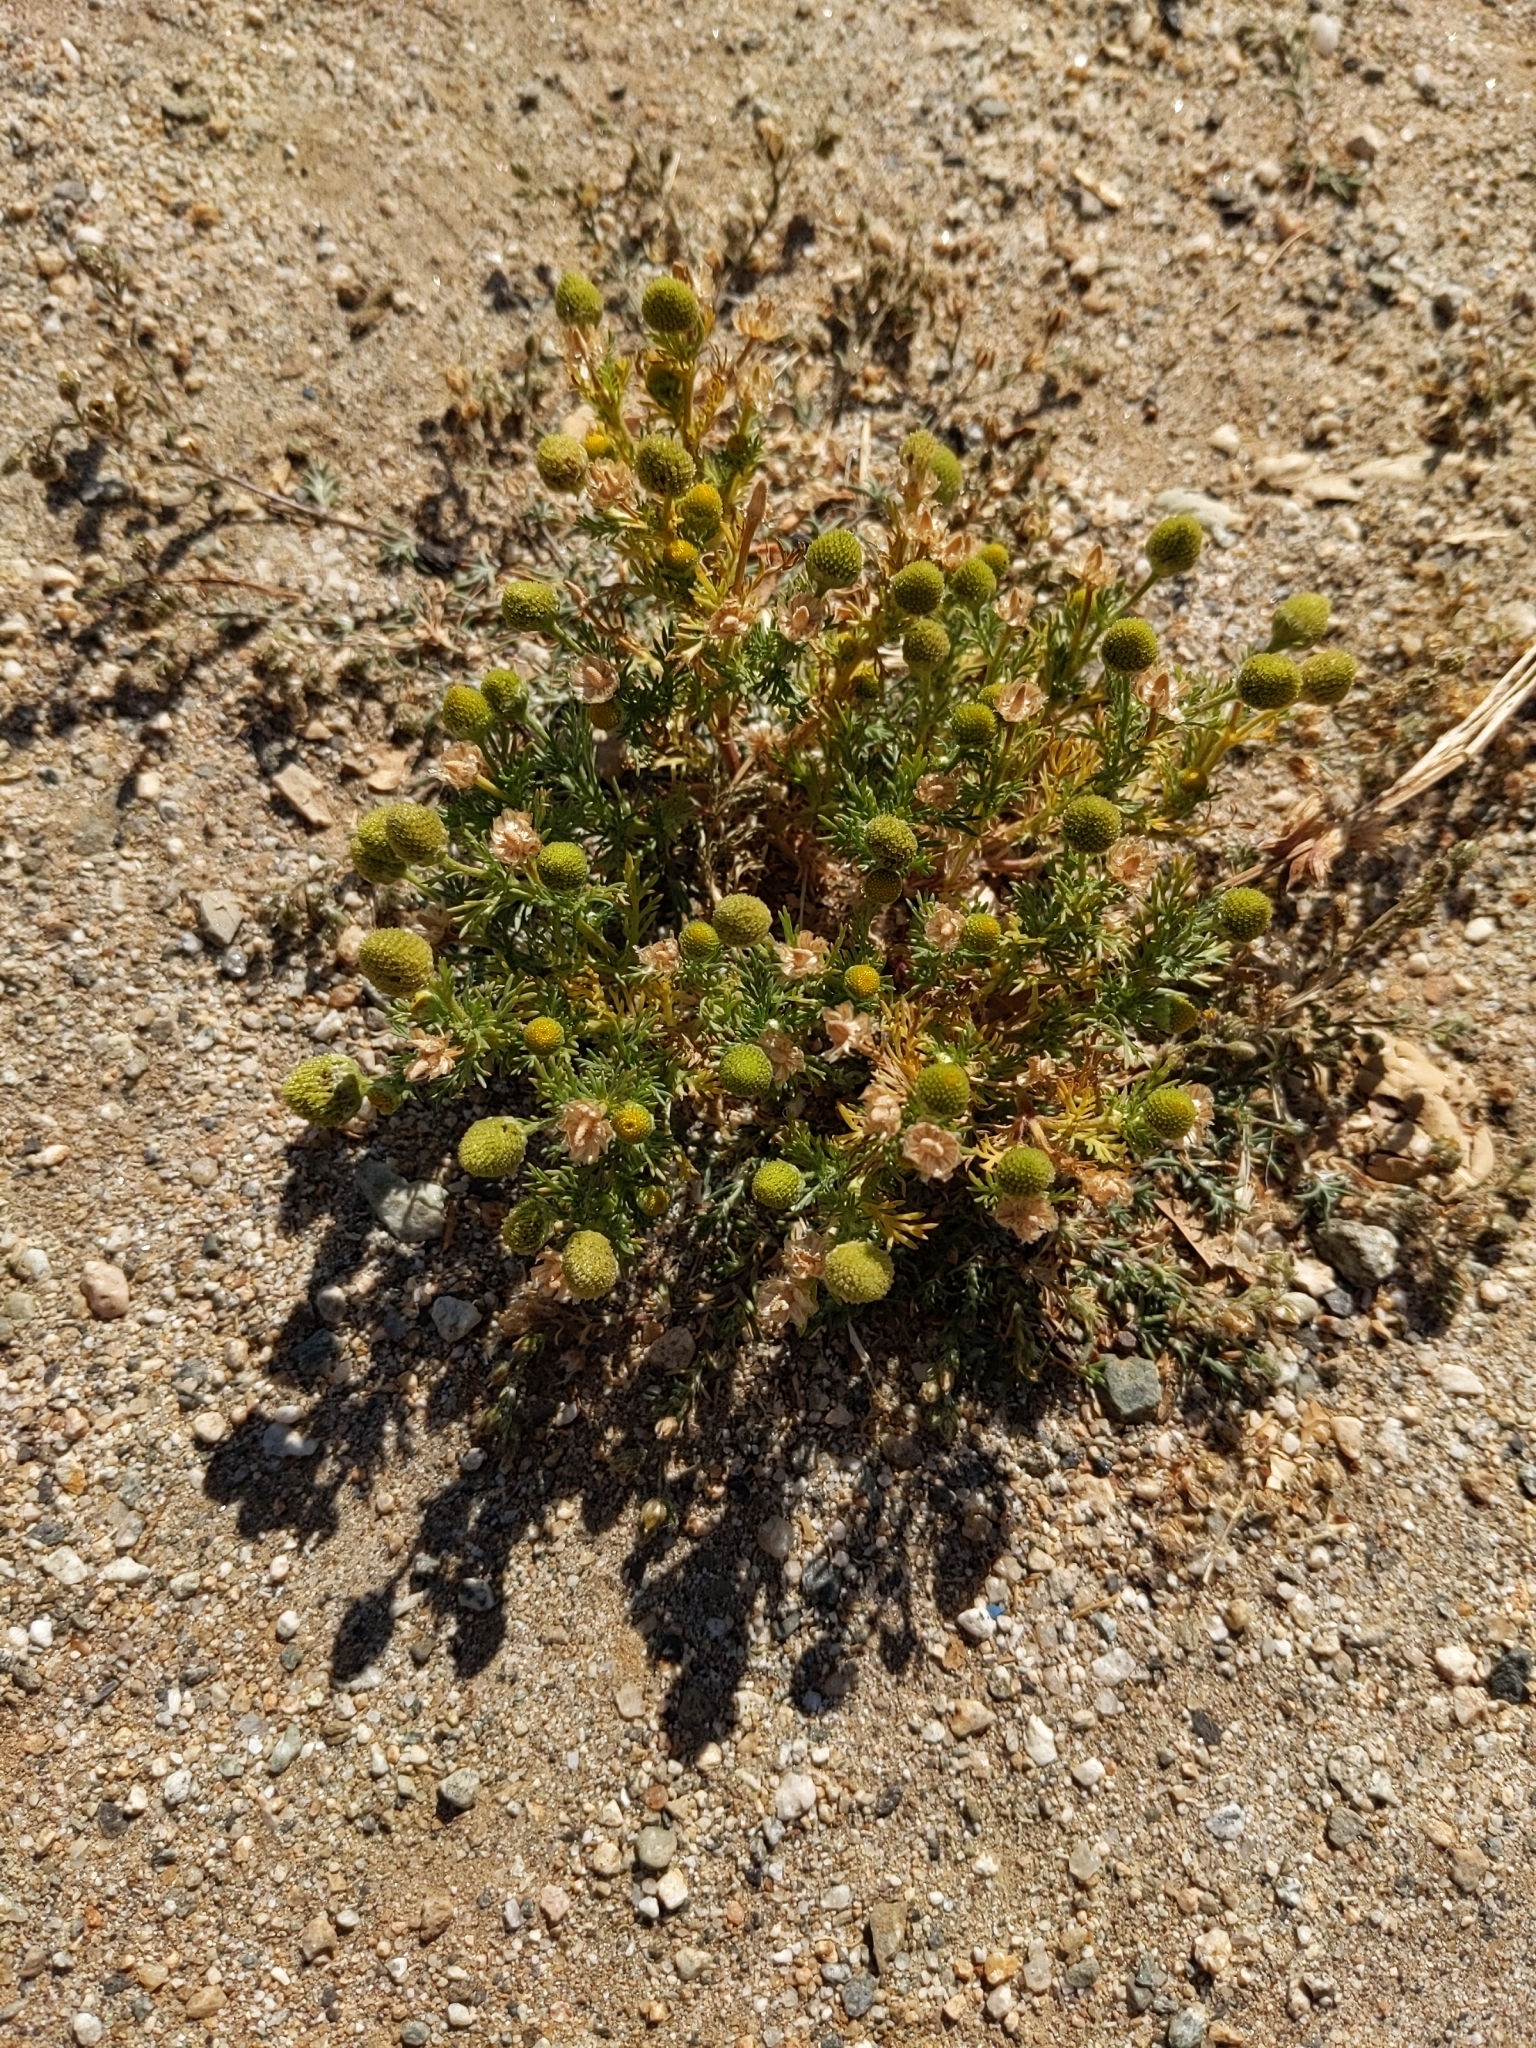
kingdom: Plantae
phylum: Tracheophyta
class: Magnoliopsida
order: Asterales
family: Asteraceae
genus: Matricaria
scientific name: Matricaria discoidea
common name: Disc mayweed
